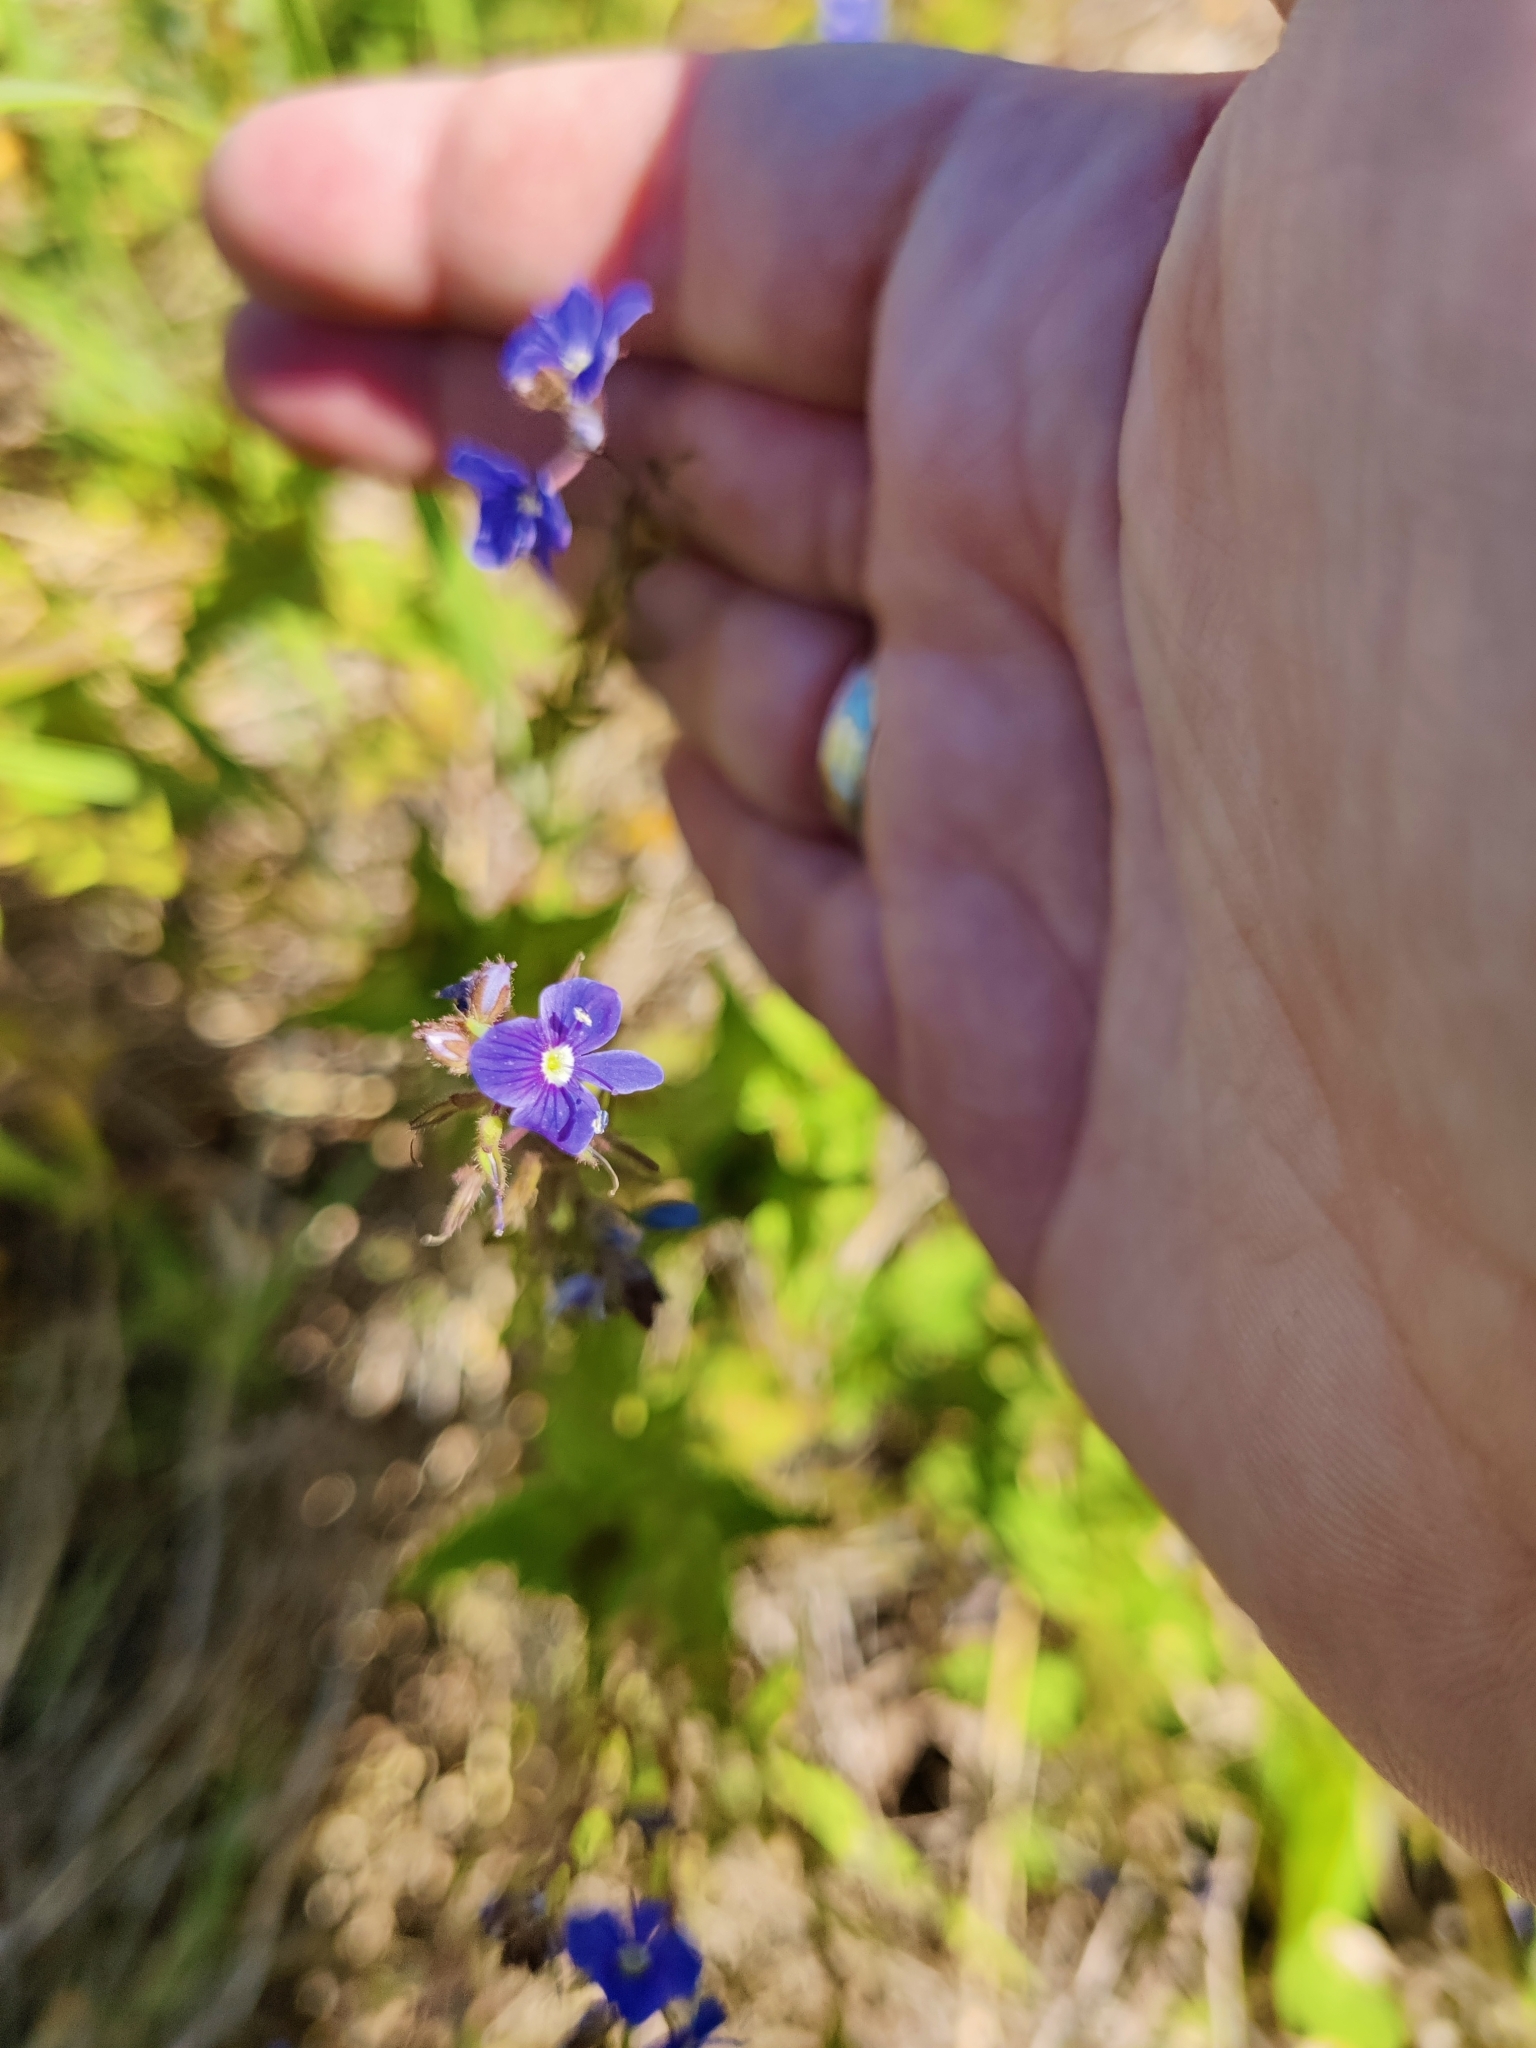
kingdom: Plantae
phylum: Tracheophyta
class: Magnoliopsida
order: Lamiales
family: Plantaginaceae
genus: Veronica
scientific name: Veronica chamaedrys
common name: Germander speedwell
